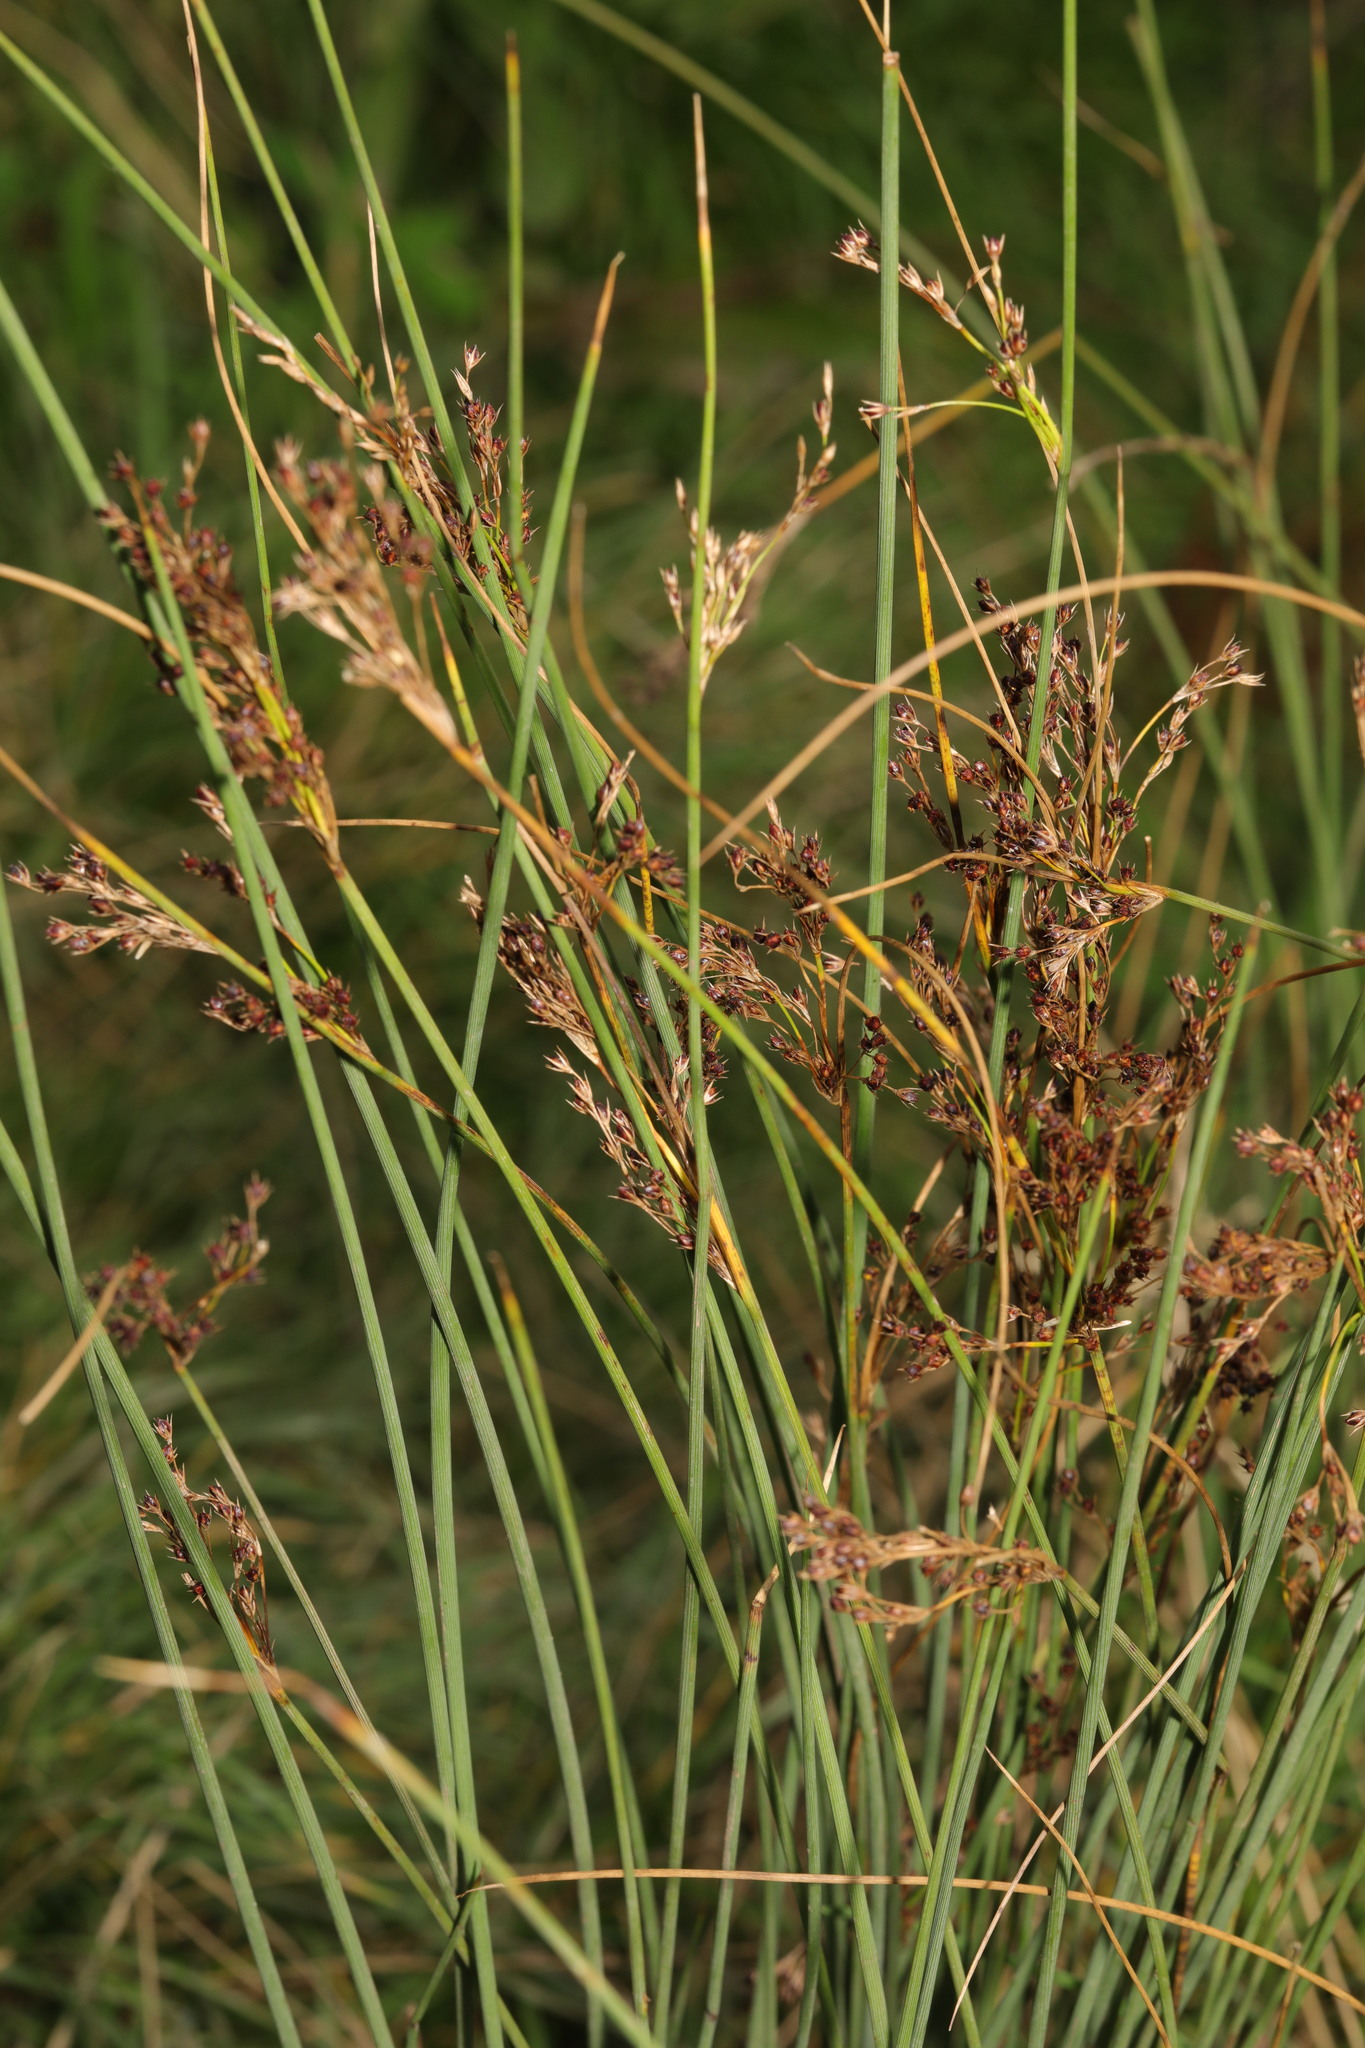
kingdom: Plantae
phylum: Tracheophyta
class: Liliopsida
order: Poales
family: Juncaceae
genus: Juncus
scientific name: Juncus inflexus
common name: Hard rush
